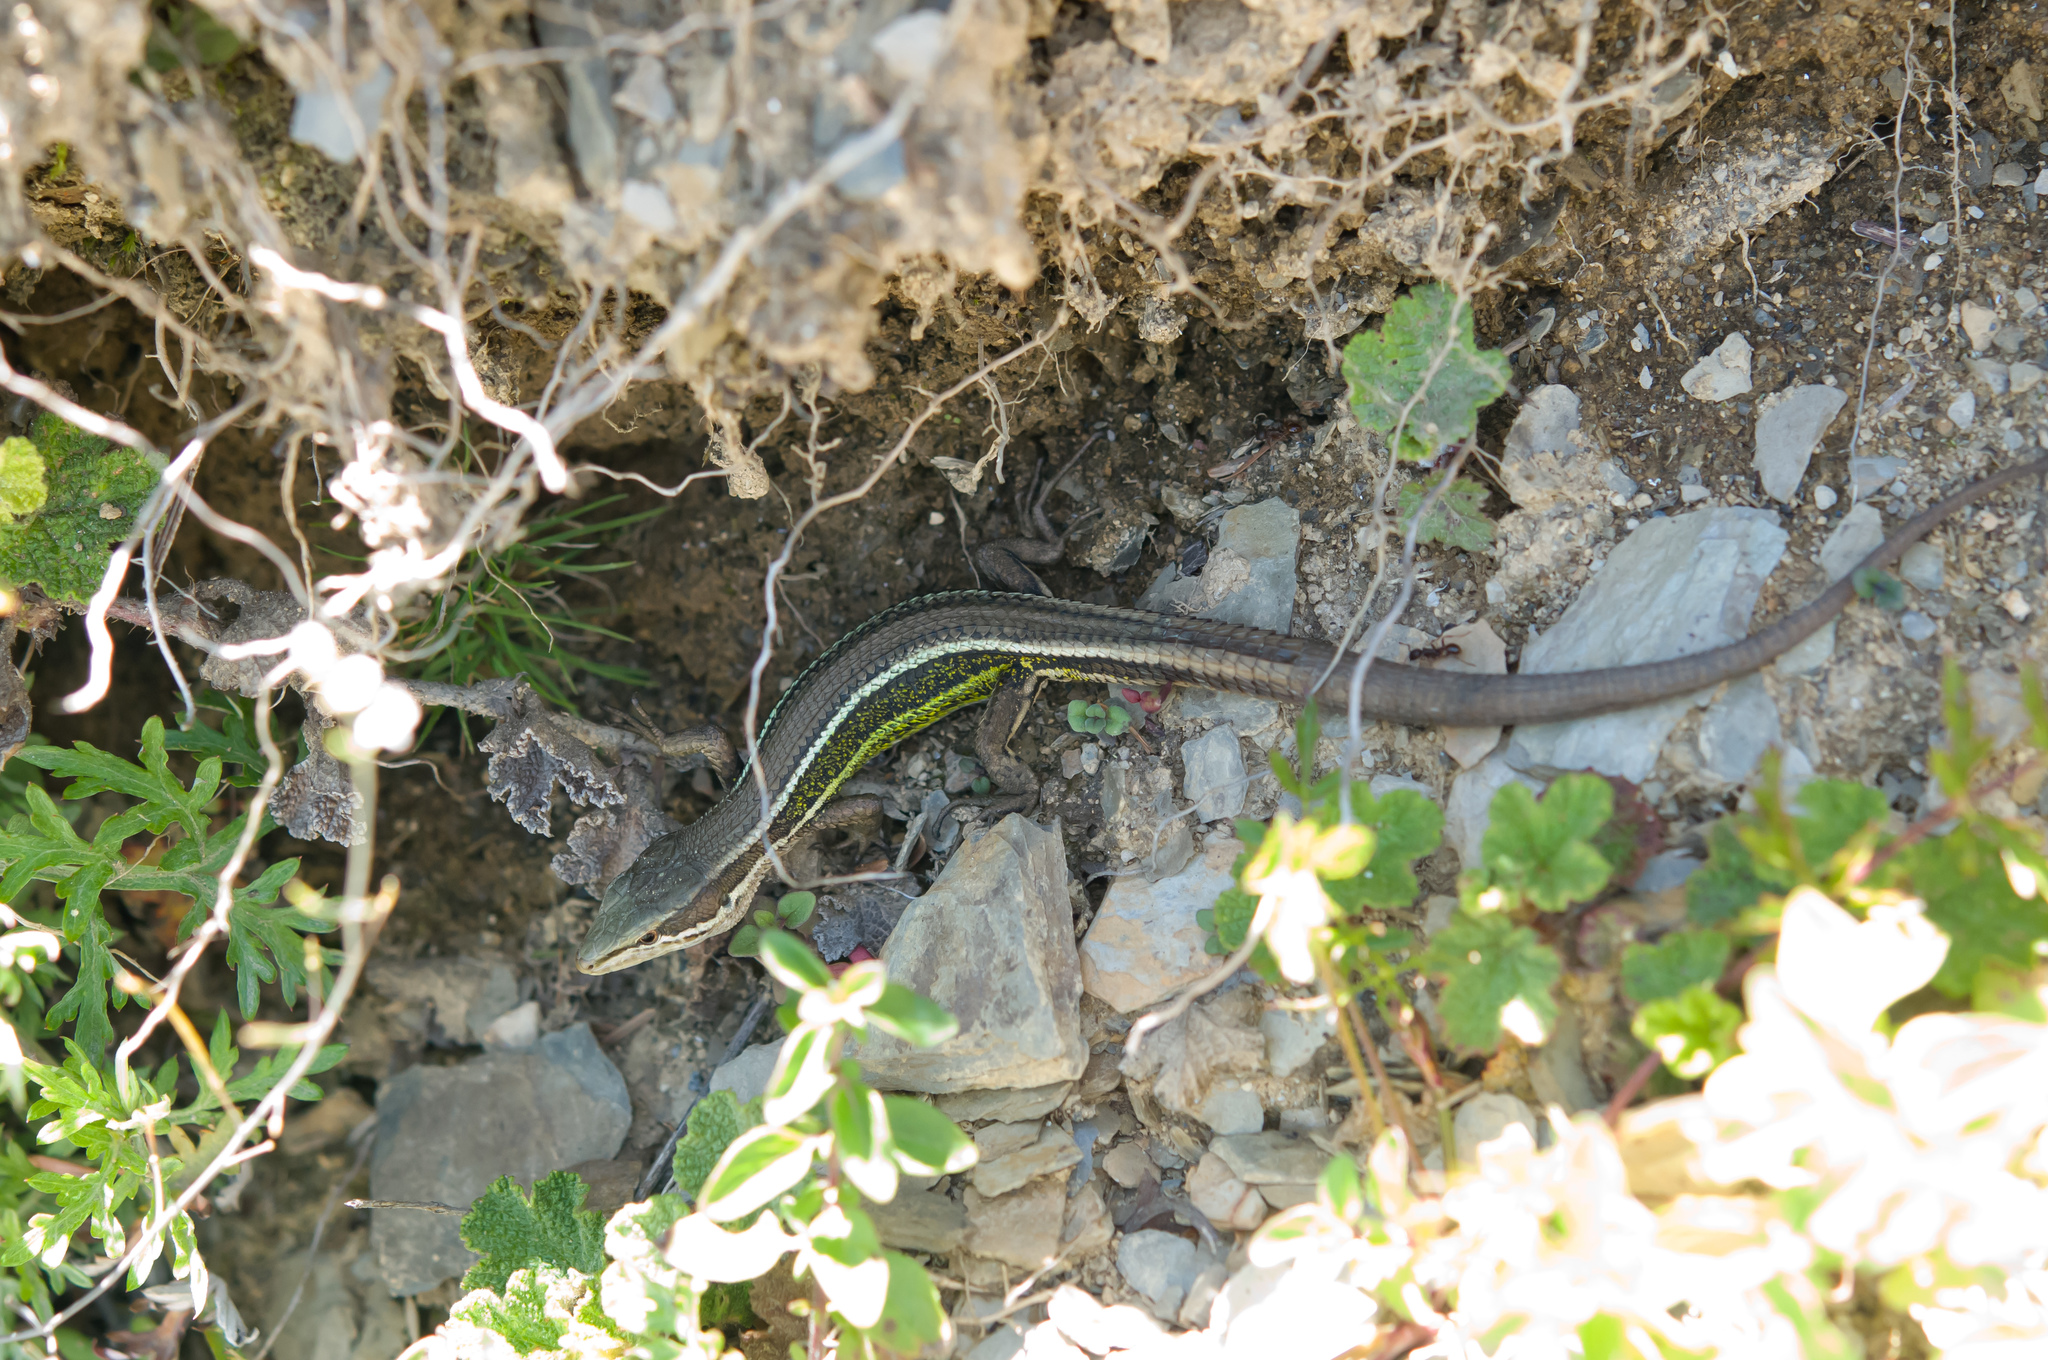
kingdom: Animalia
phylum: Chordata
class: Squamata
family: Lacertidae
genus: Takydromus
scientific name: Takydromus hsuehshanensis
